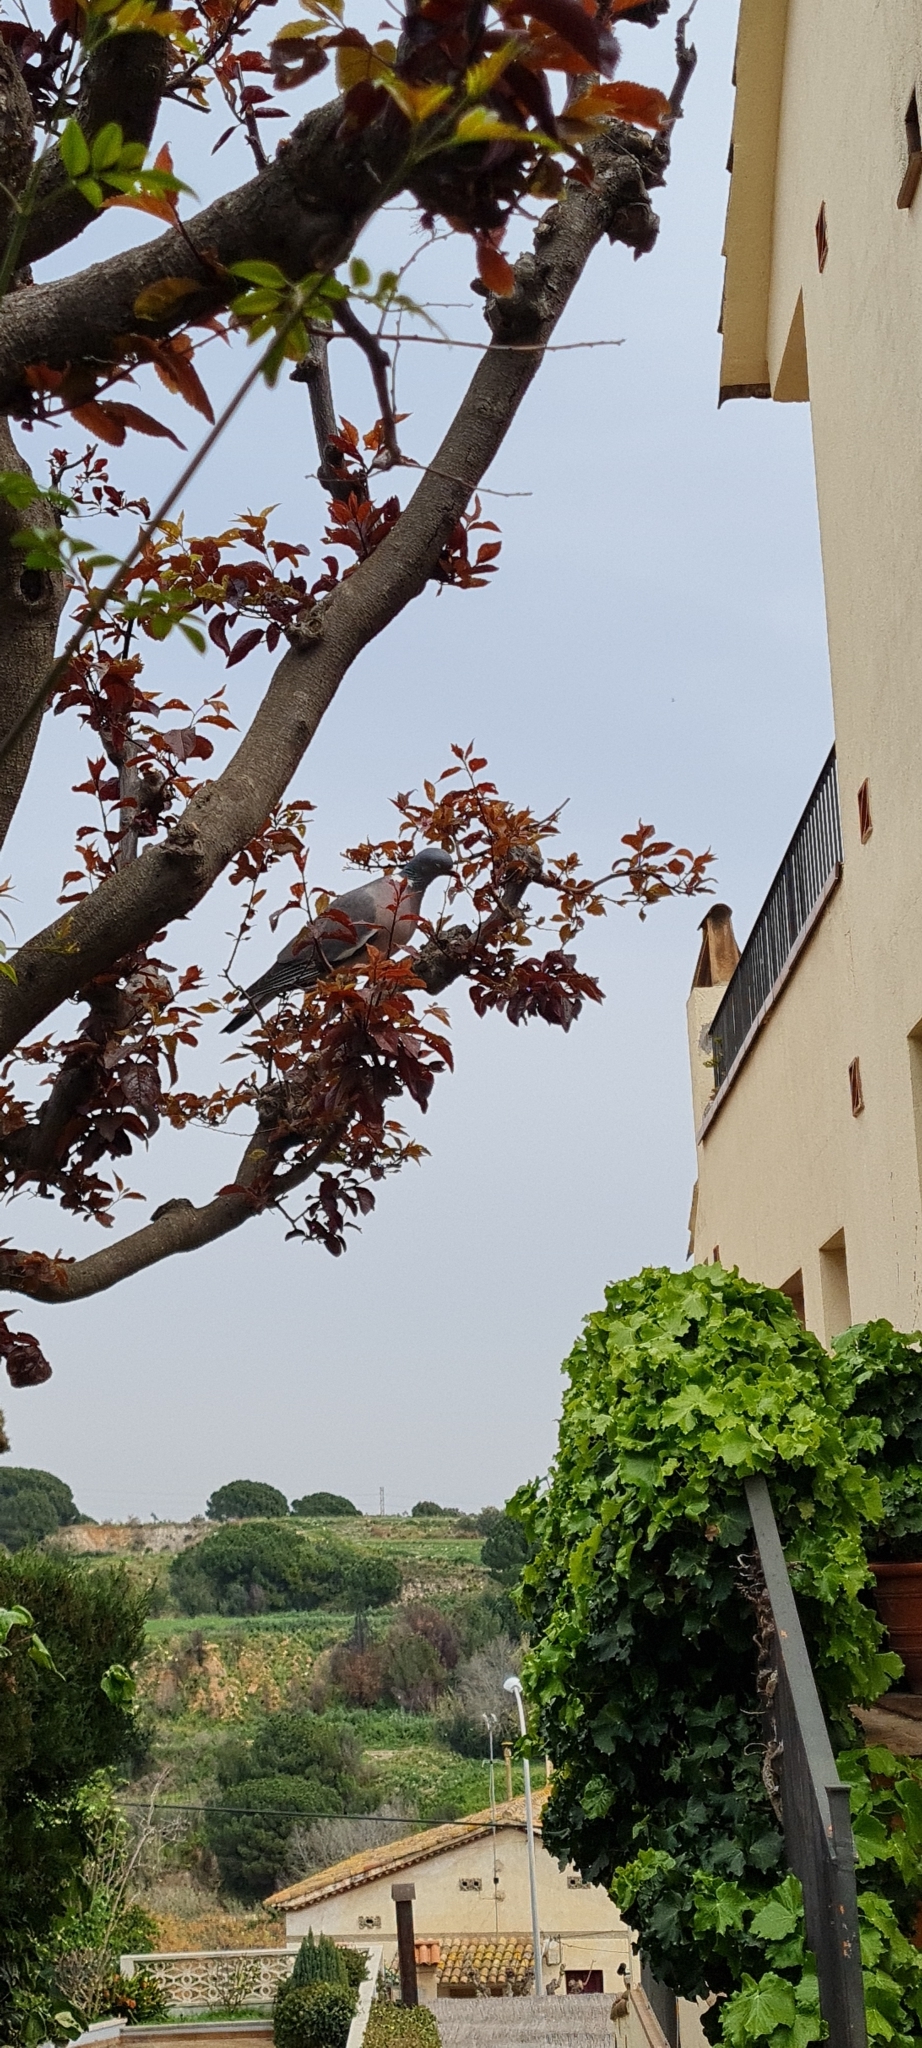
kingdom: Animalia
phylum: Chordata
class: Aves
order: Columbiformes
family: Columbidae
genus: Columba
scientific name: Columba palumbus
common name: Common wood pigeon
